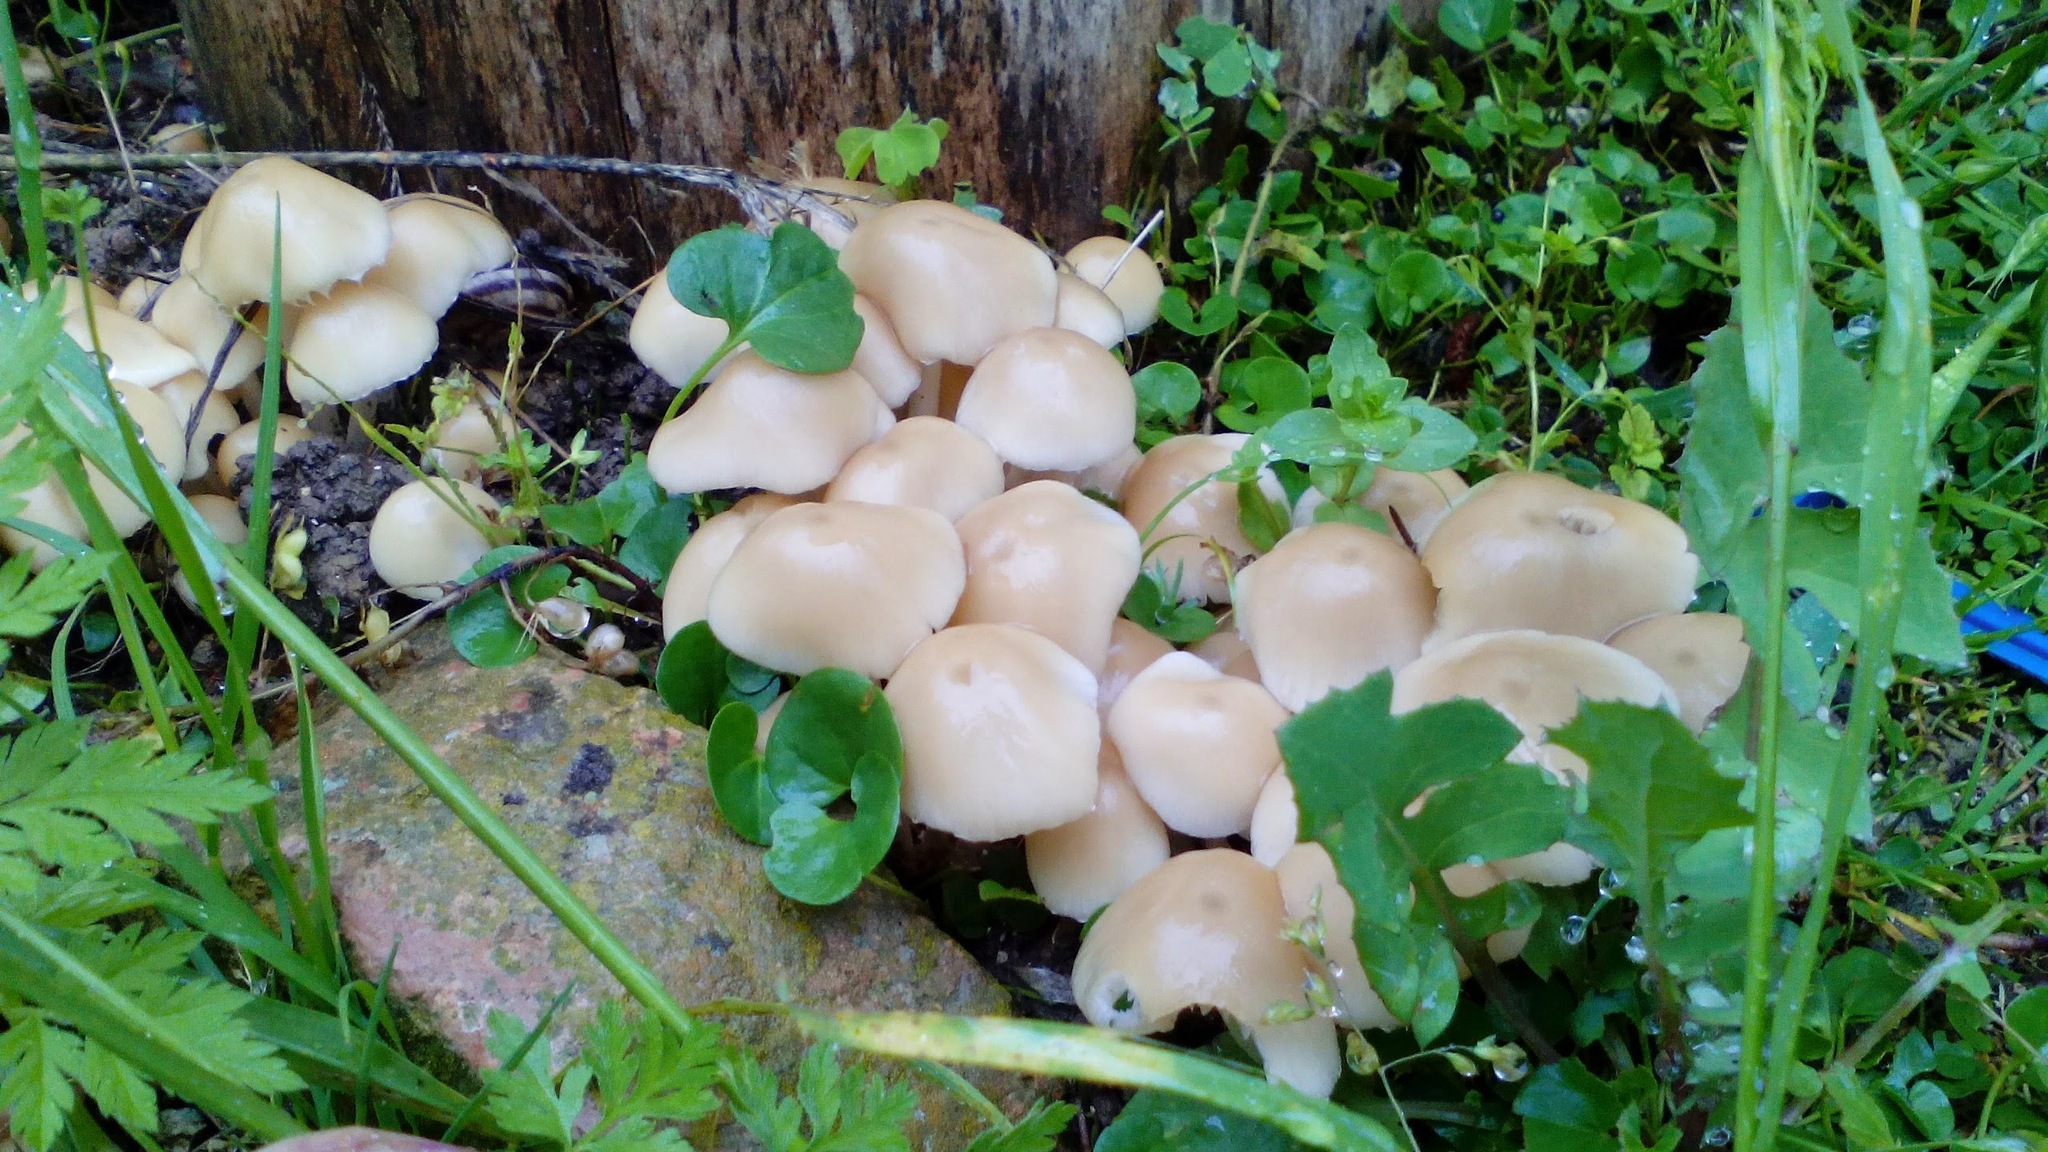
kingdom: Fungi
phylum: Basidiomycota
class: Agaricomycetes
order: Agaricales
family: Psathyrellaceae
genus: Candolleomyces
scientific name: Candolleomyces candolleanus
